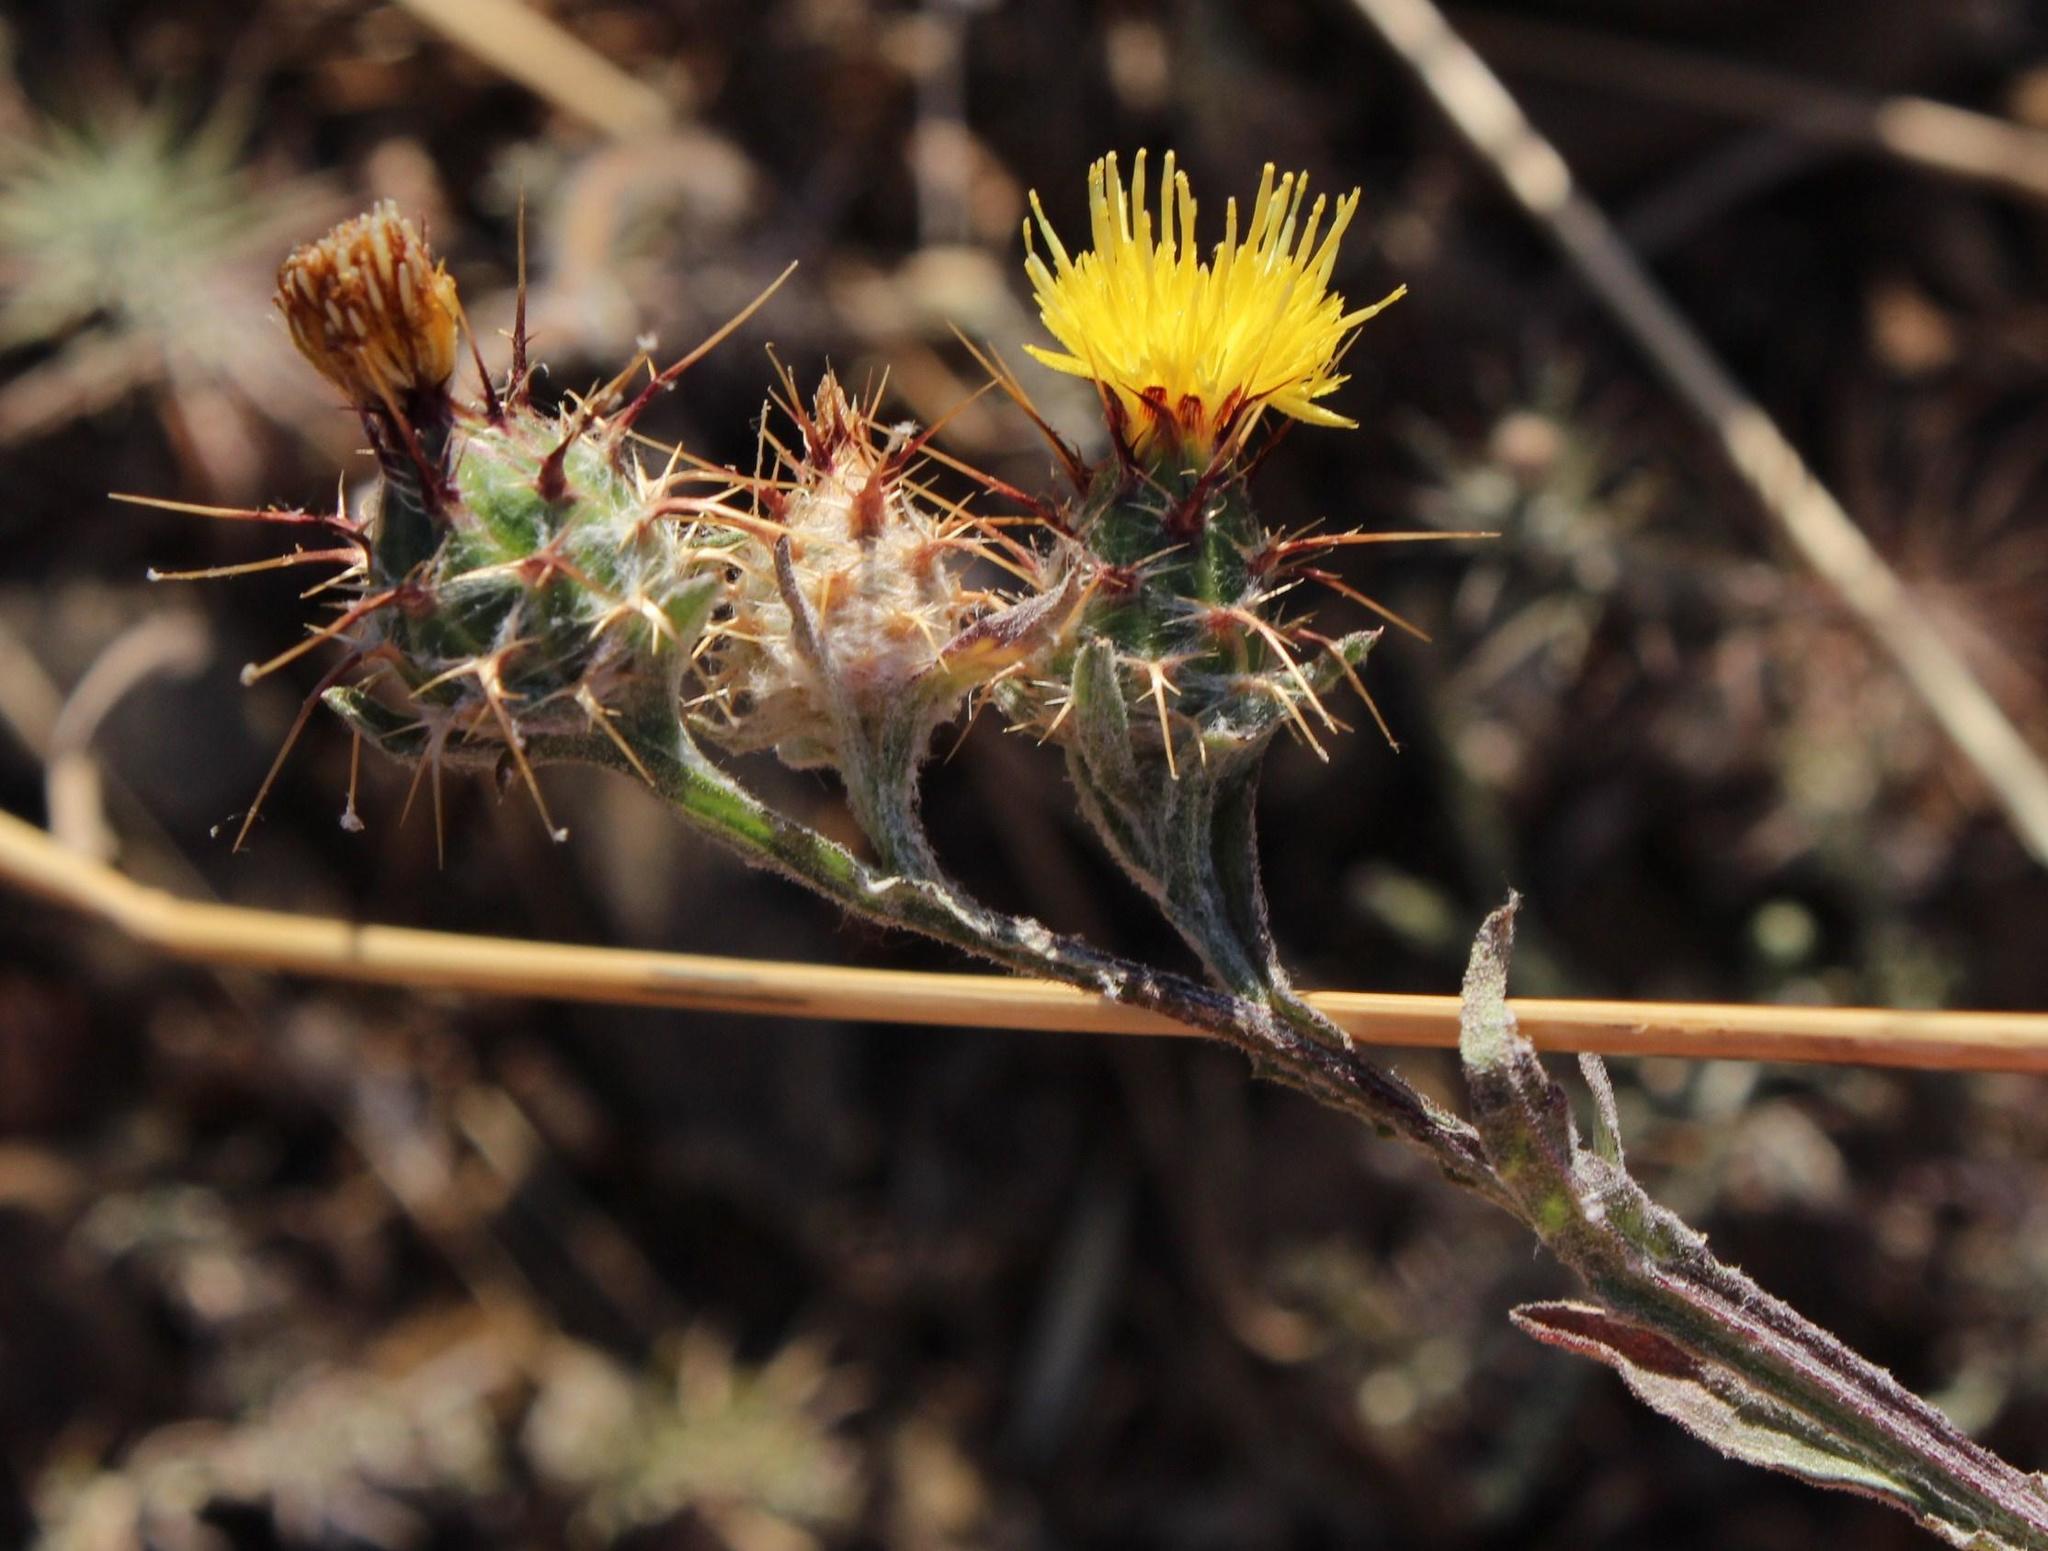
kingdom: Plantae
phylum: Tracheophyta
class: Magnoliopsida
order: Asterales
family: Asteraceae
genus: Centaurea
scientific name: Centaurea melitensis
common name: Maltese star-thistle
